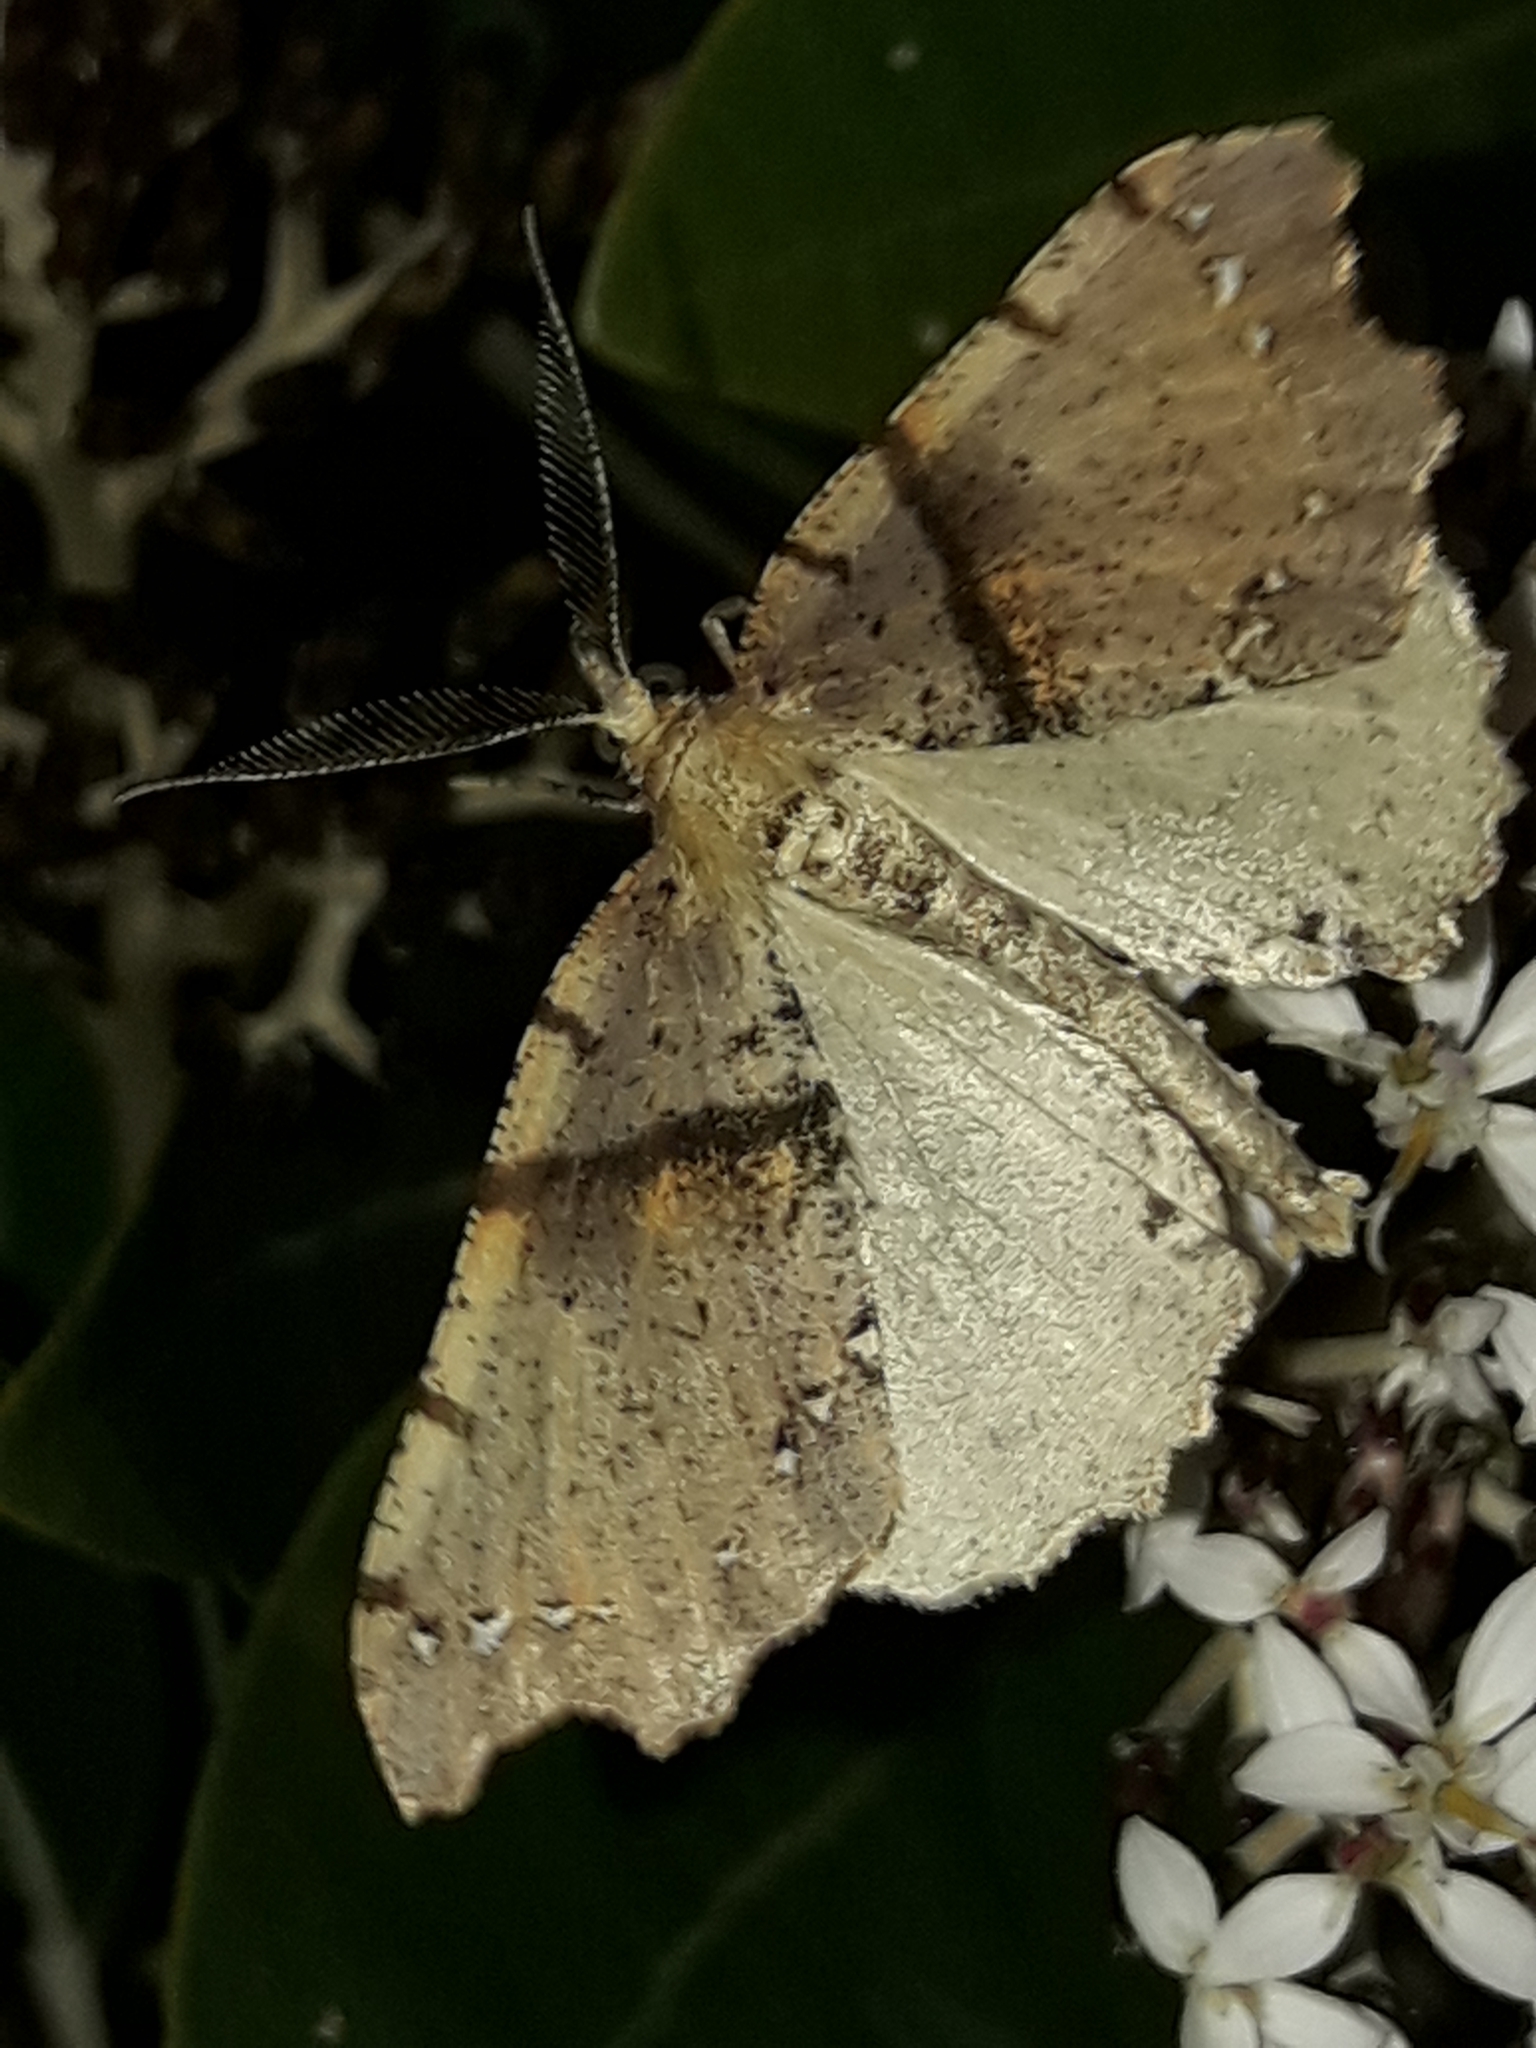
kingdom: Animalia
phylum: Arthropoda
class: Insecta
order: Lepidoptera
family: Geometridae
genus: Chalastra
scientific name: Chalastra pellurgata
